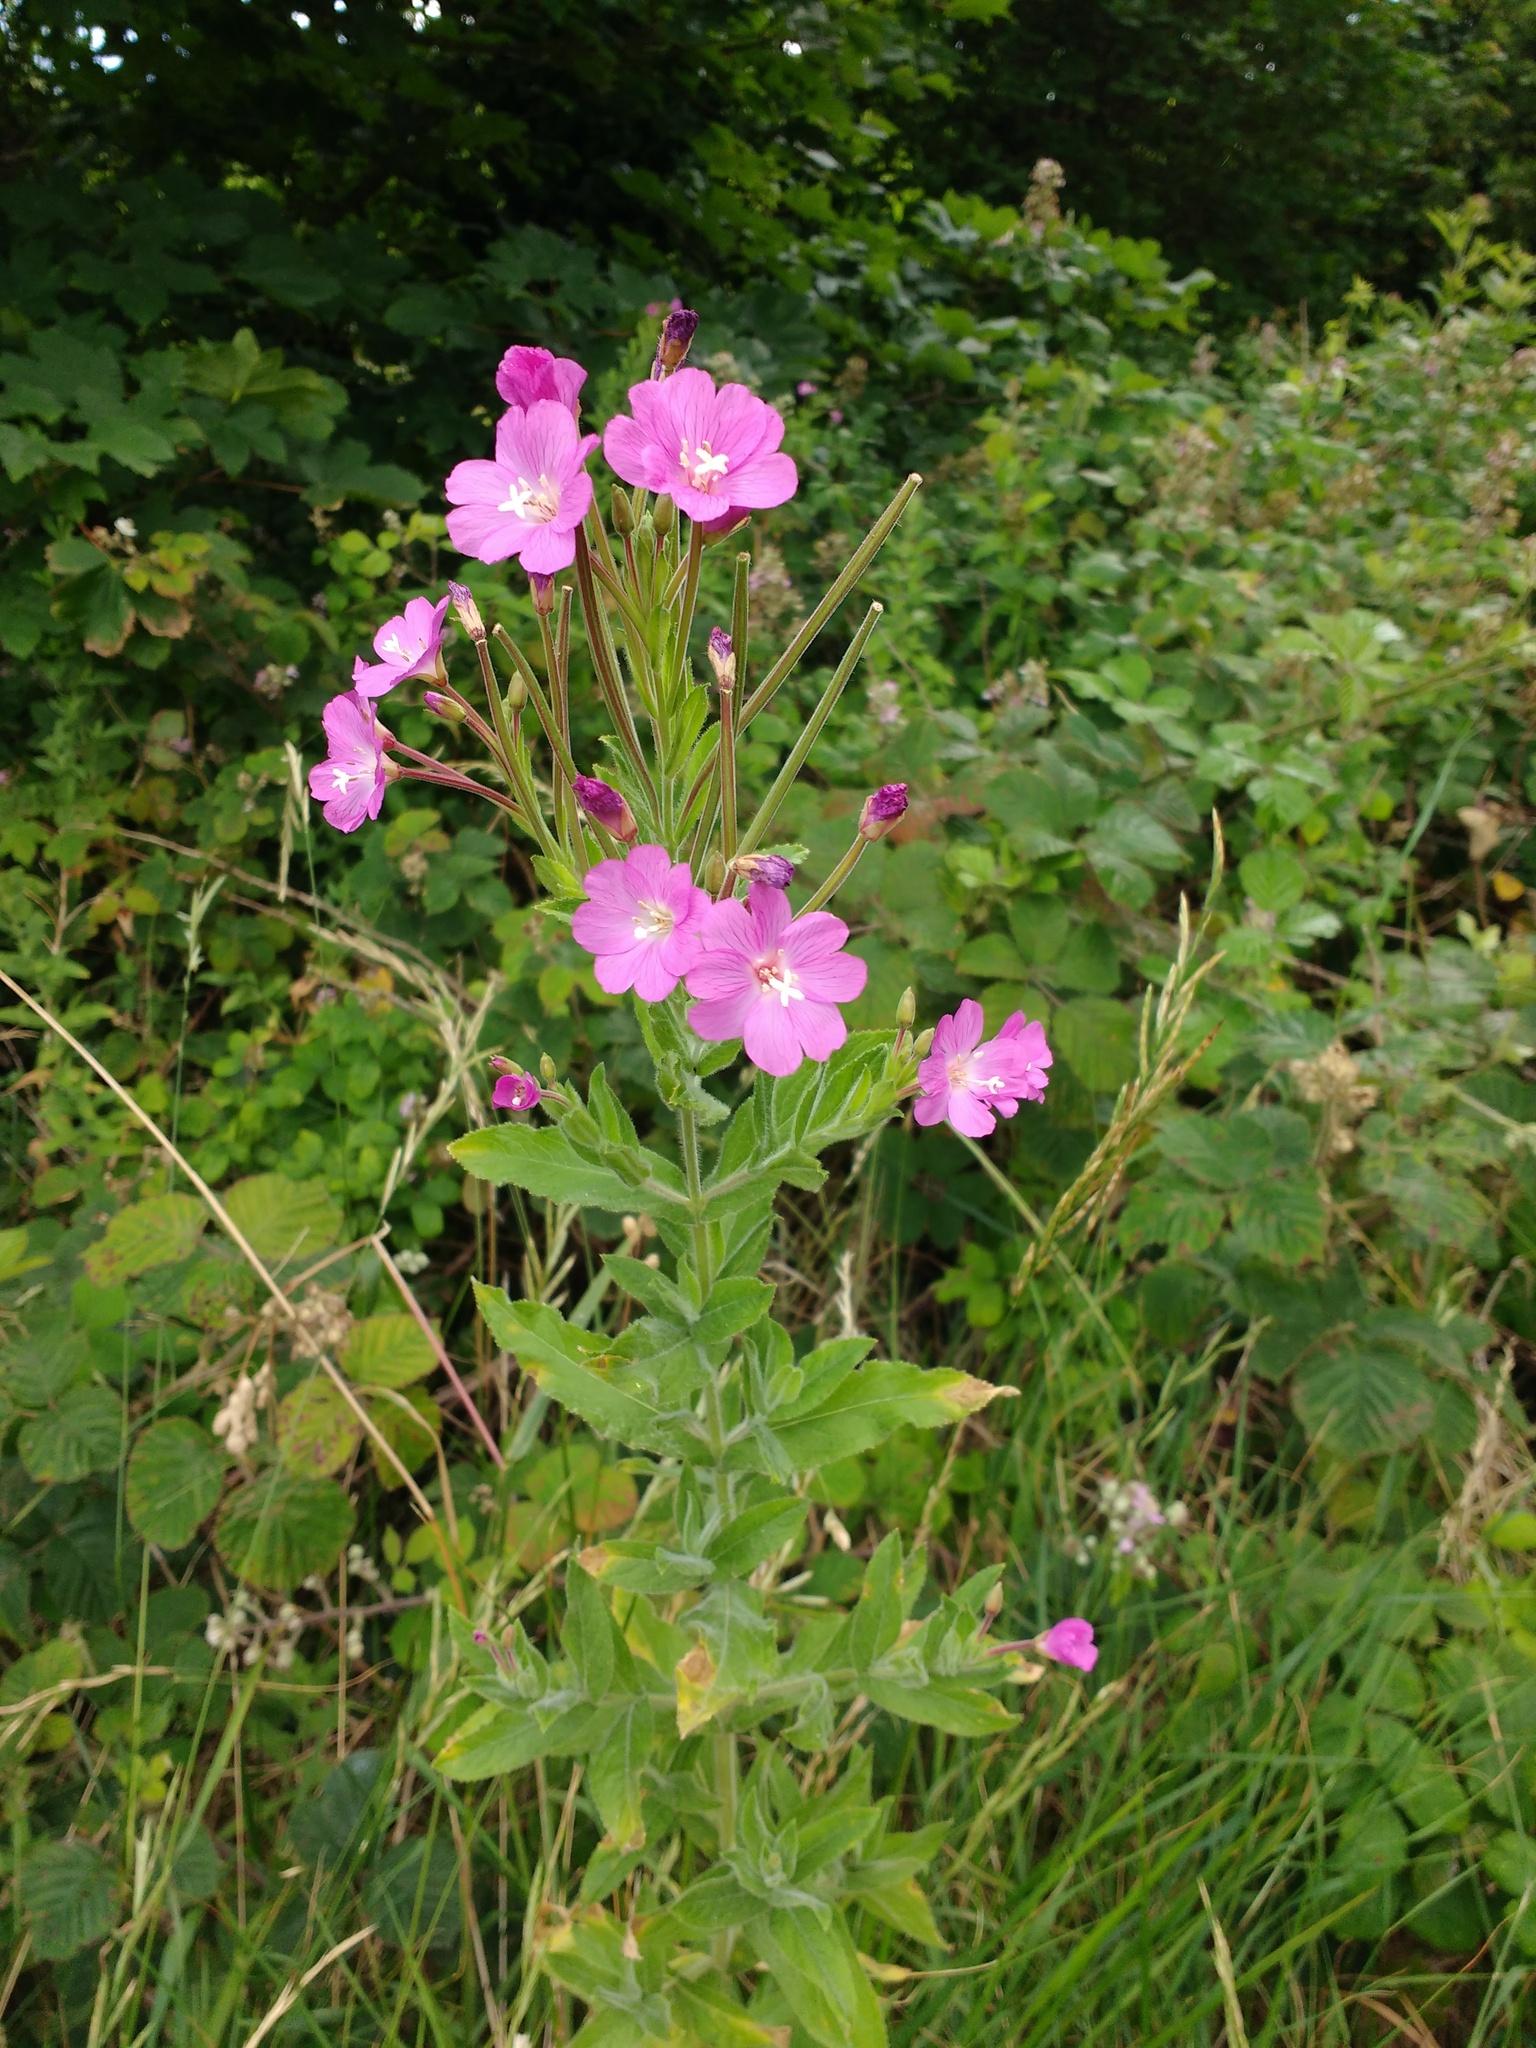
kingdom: Plantae
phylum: Tracheophyta
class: Magnoliopsida
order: Myrtales
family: Onagraceae
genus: Epilobium
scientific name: Epilobium hirsutum
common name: Great willowherb
